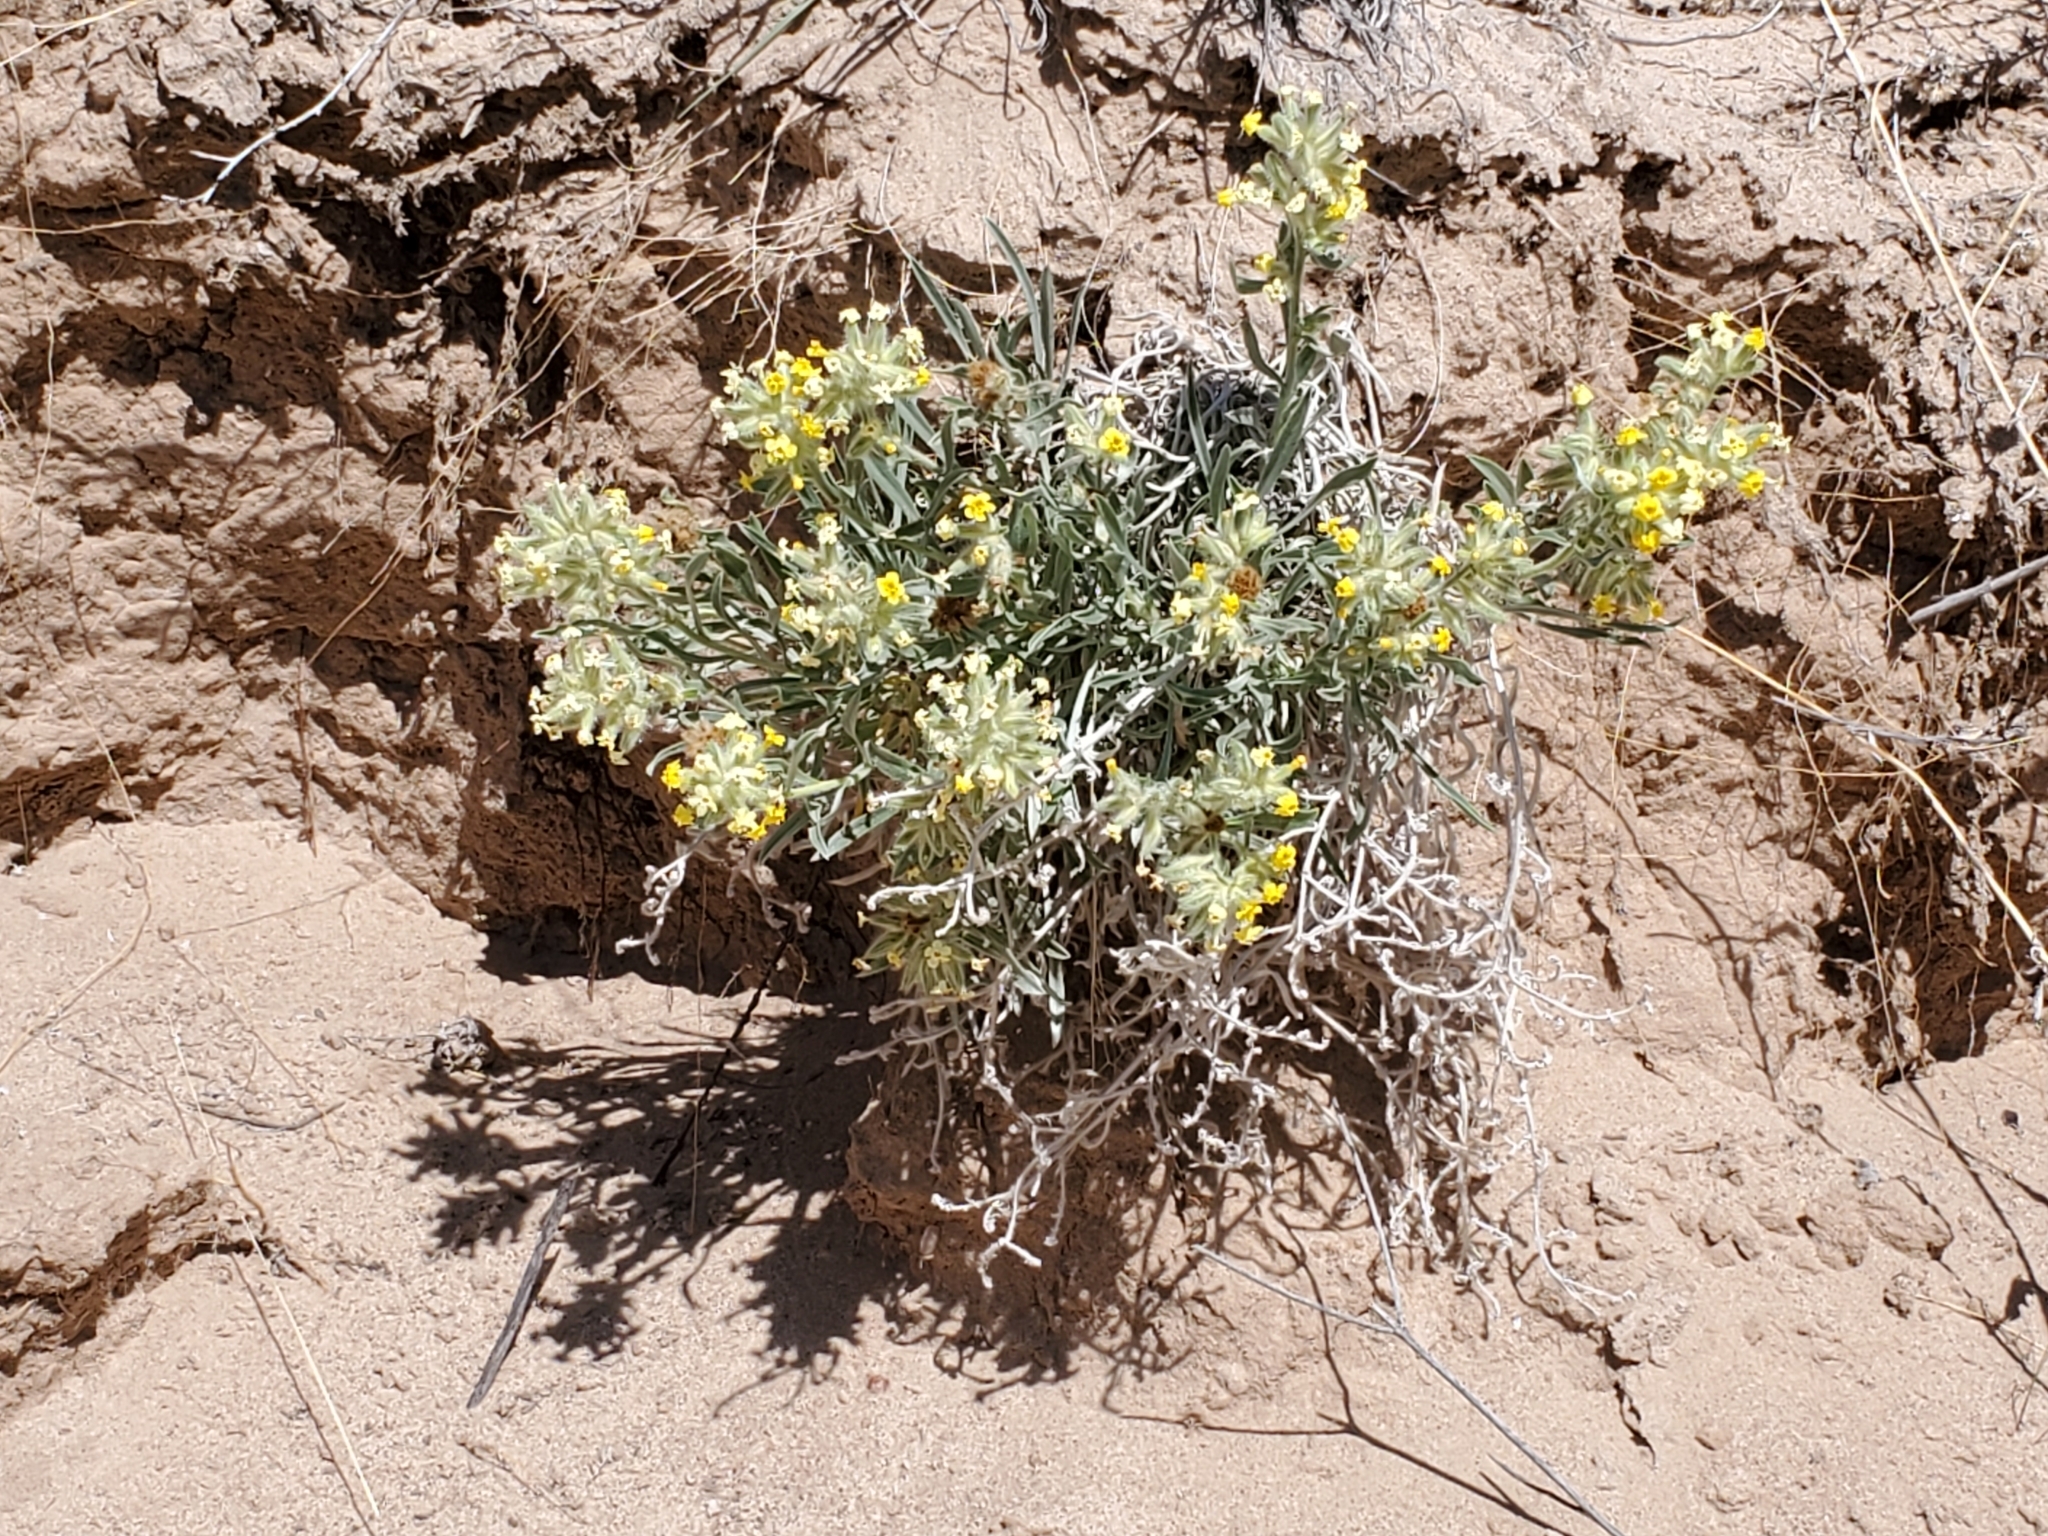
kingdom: Plantae
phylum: Tracheophyta
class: Magnoliopsida
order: Boraginales
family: Boraginaceae
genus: Oreocarya
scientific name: Oreocarya flava
